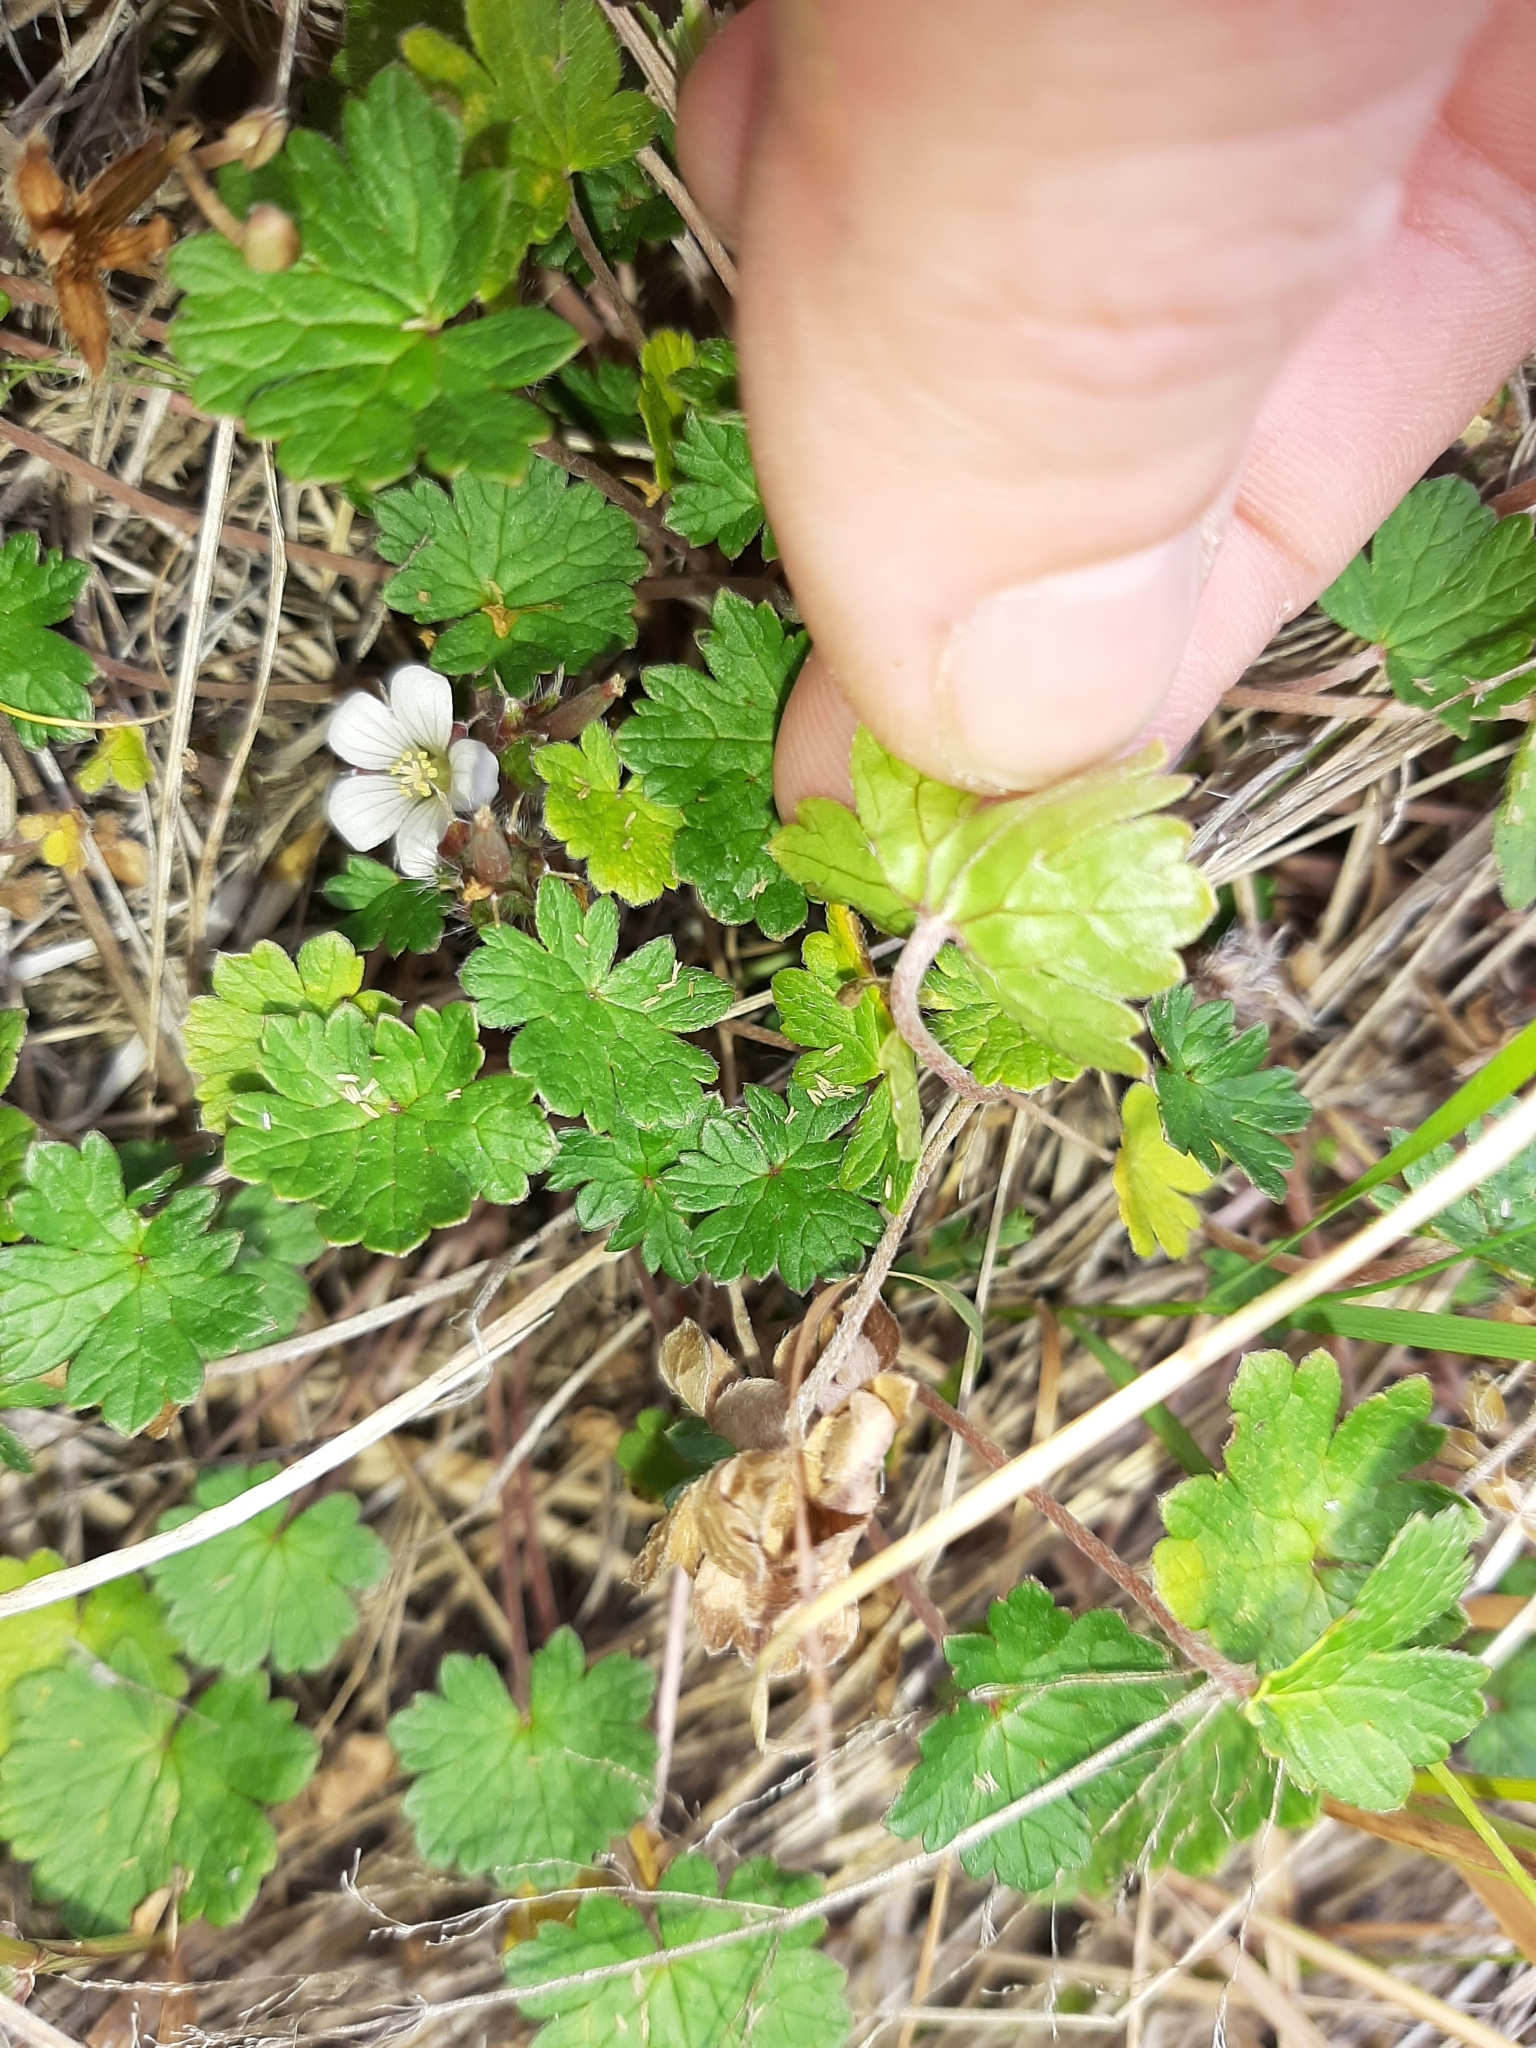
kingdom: Plantae
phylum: Tracheophyta
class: Magnoliopsida
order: Geraniales
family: Geraniaceae
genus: Geranium
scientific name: Geranium brevicaule
